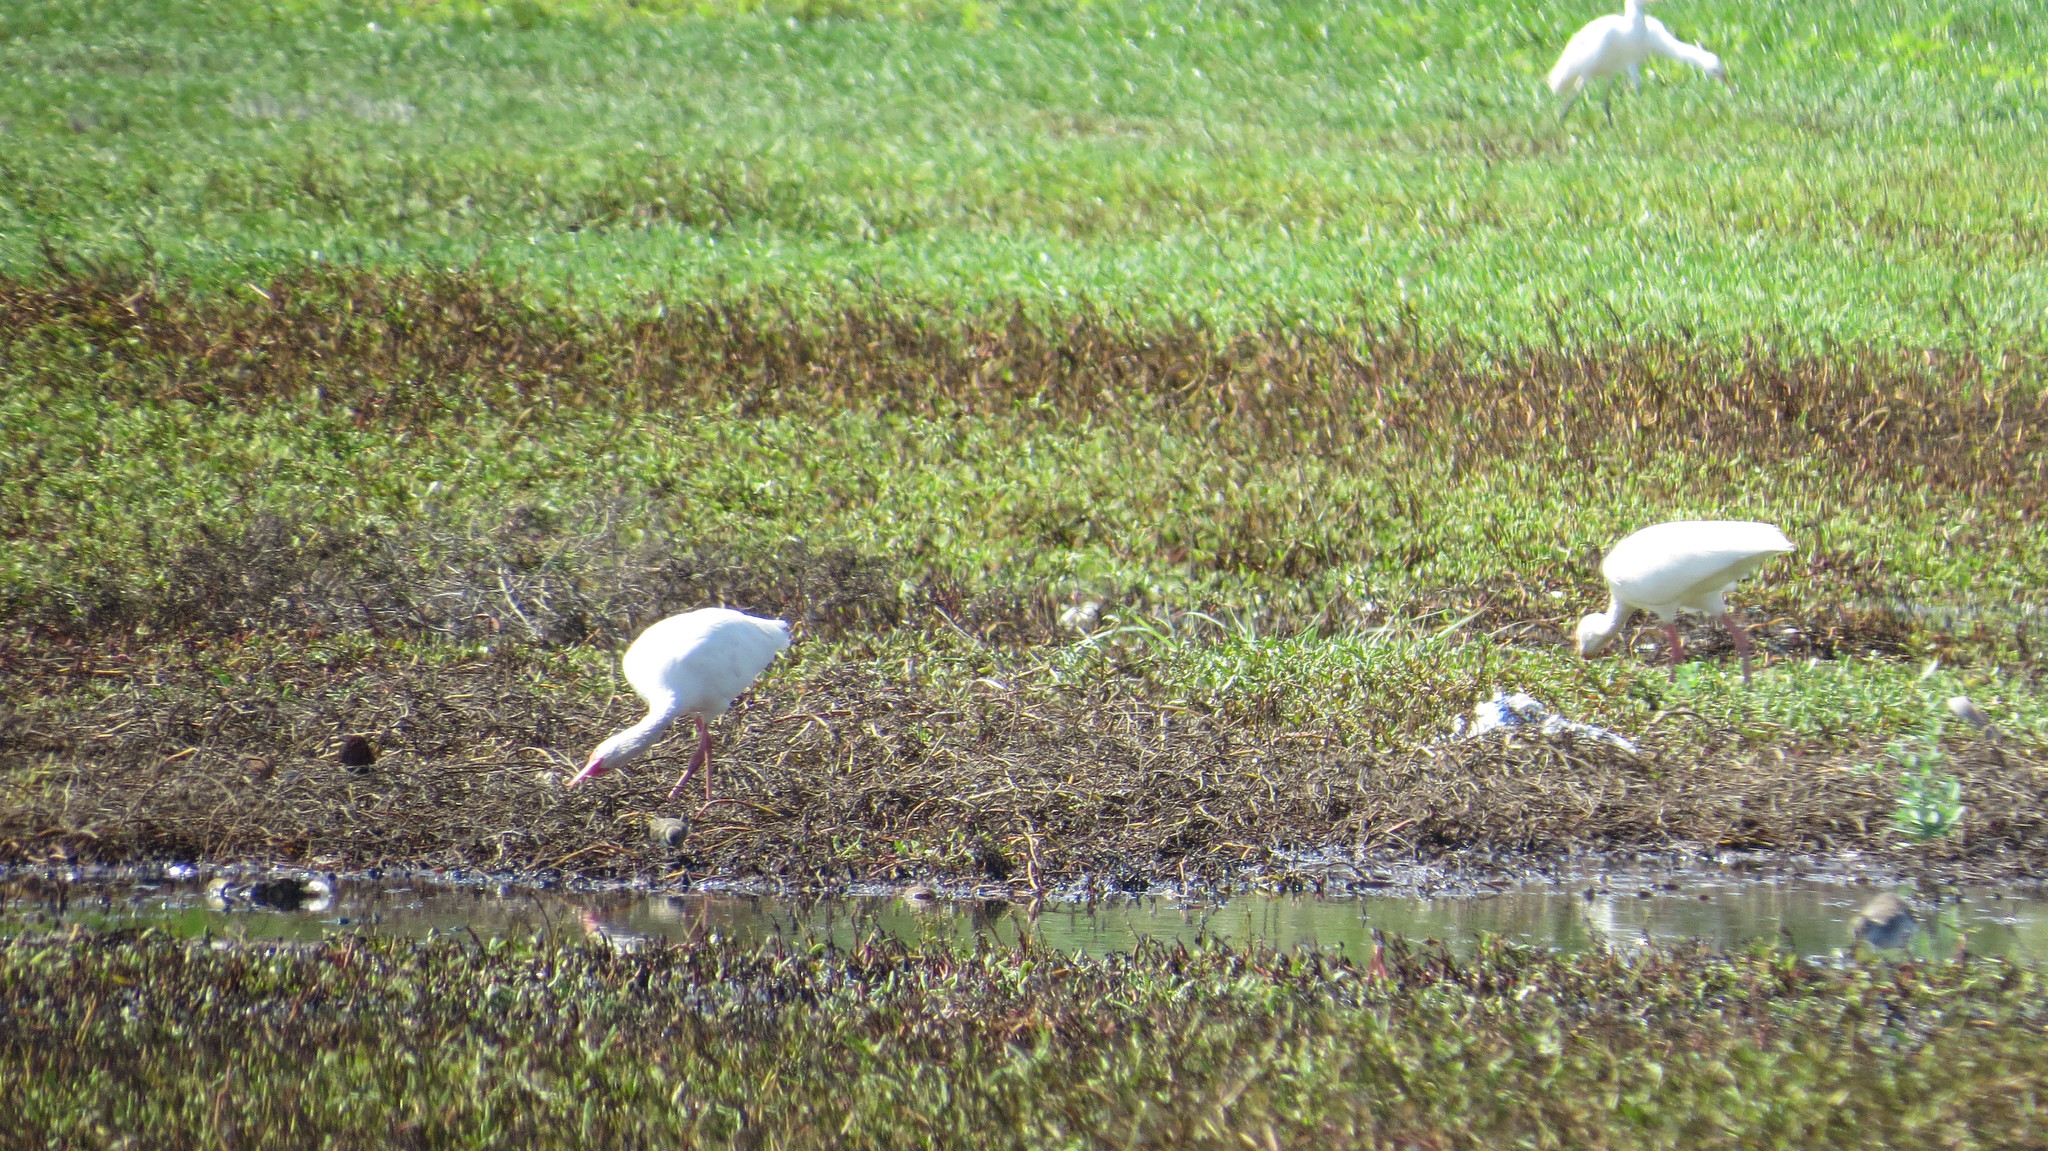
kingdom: Animalia
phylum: Chordata
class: Aves
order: Pelecaniformes
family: Threskiornithidae
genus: Eudocimus
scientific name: Eudocimus albus
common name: White ibis
